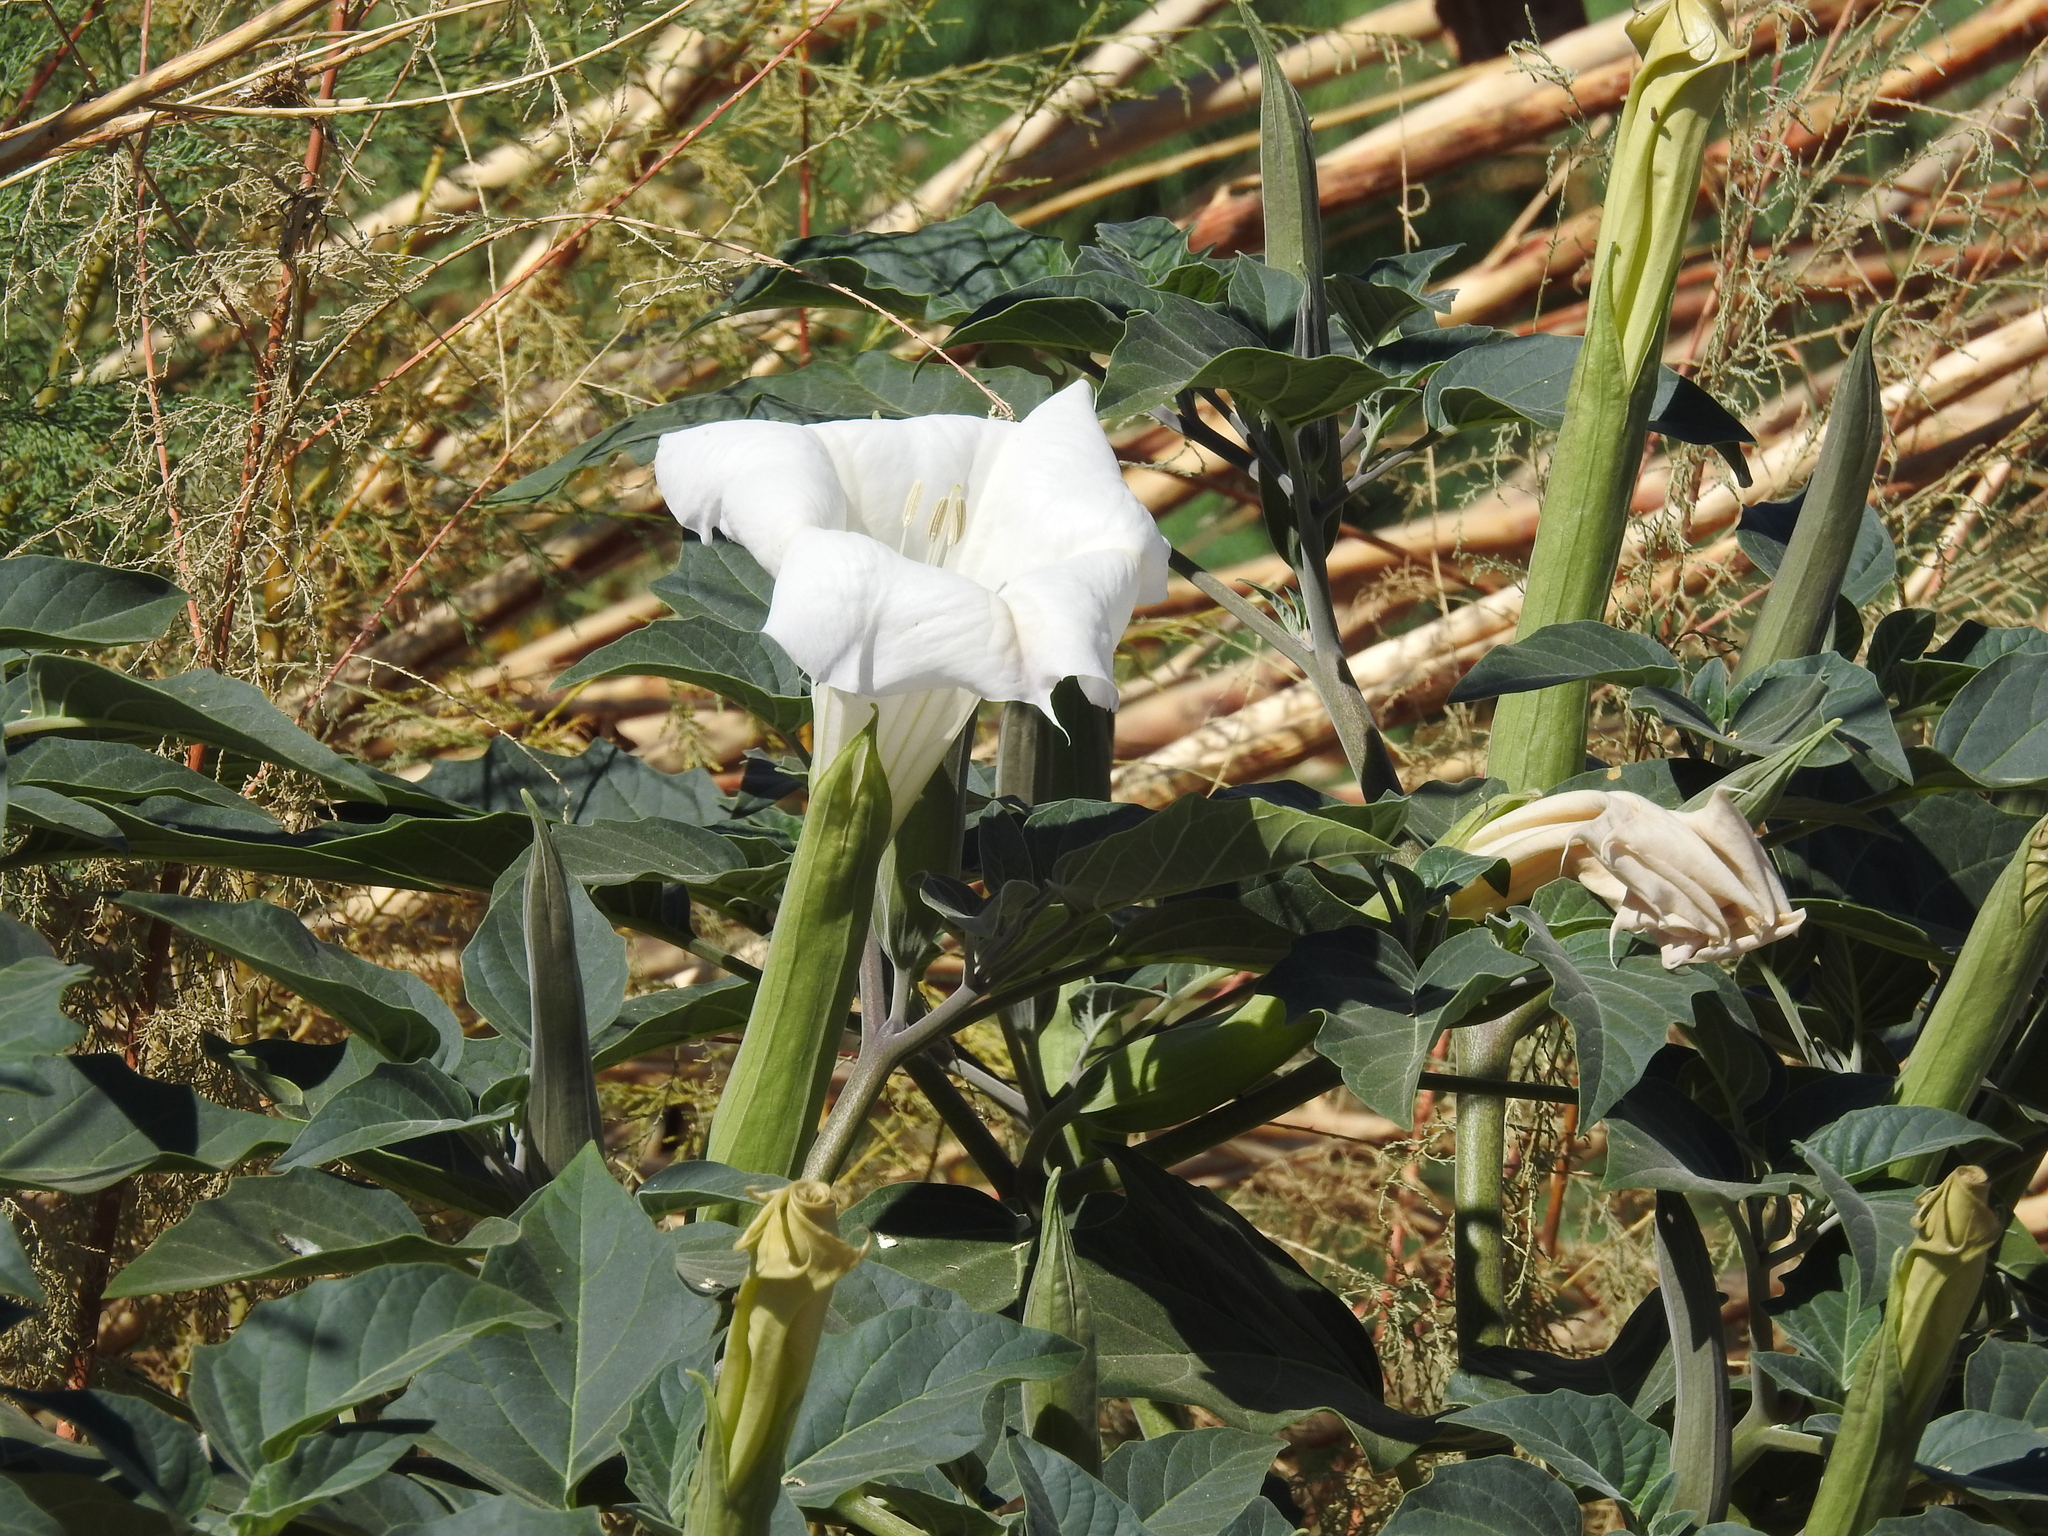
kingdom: Plantae
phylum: Tracheophyta
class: Magnoliopsida
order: Solanales
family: Solanaceae
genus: Datura
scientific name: Datura wrightii
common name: Sacred thorn-apple
